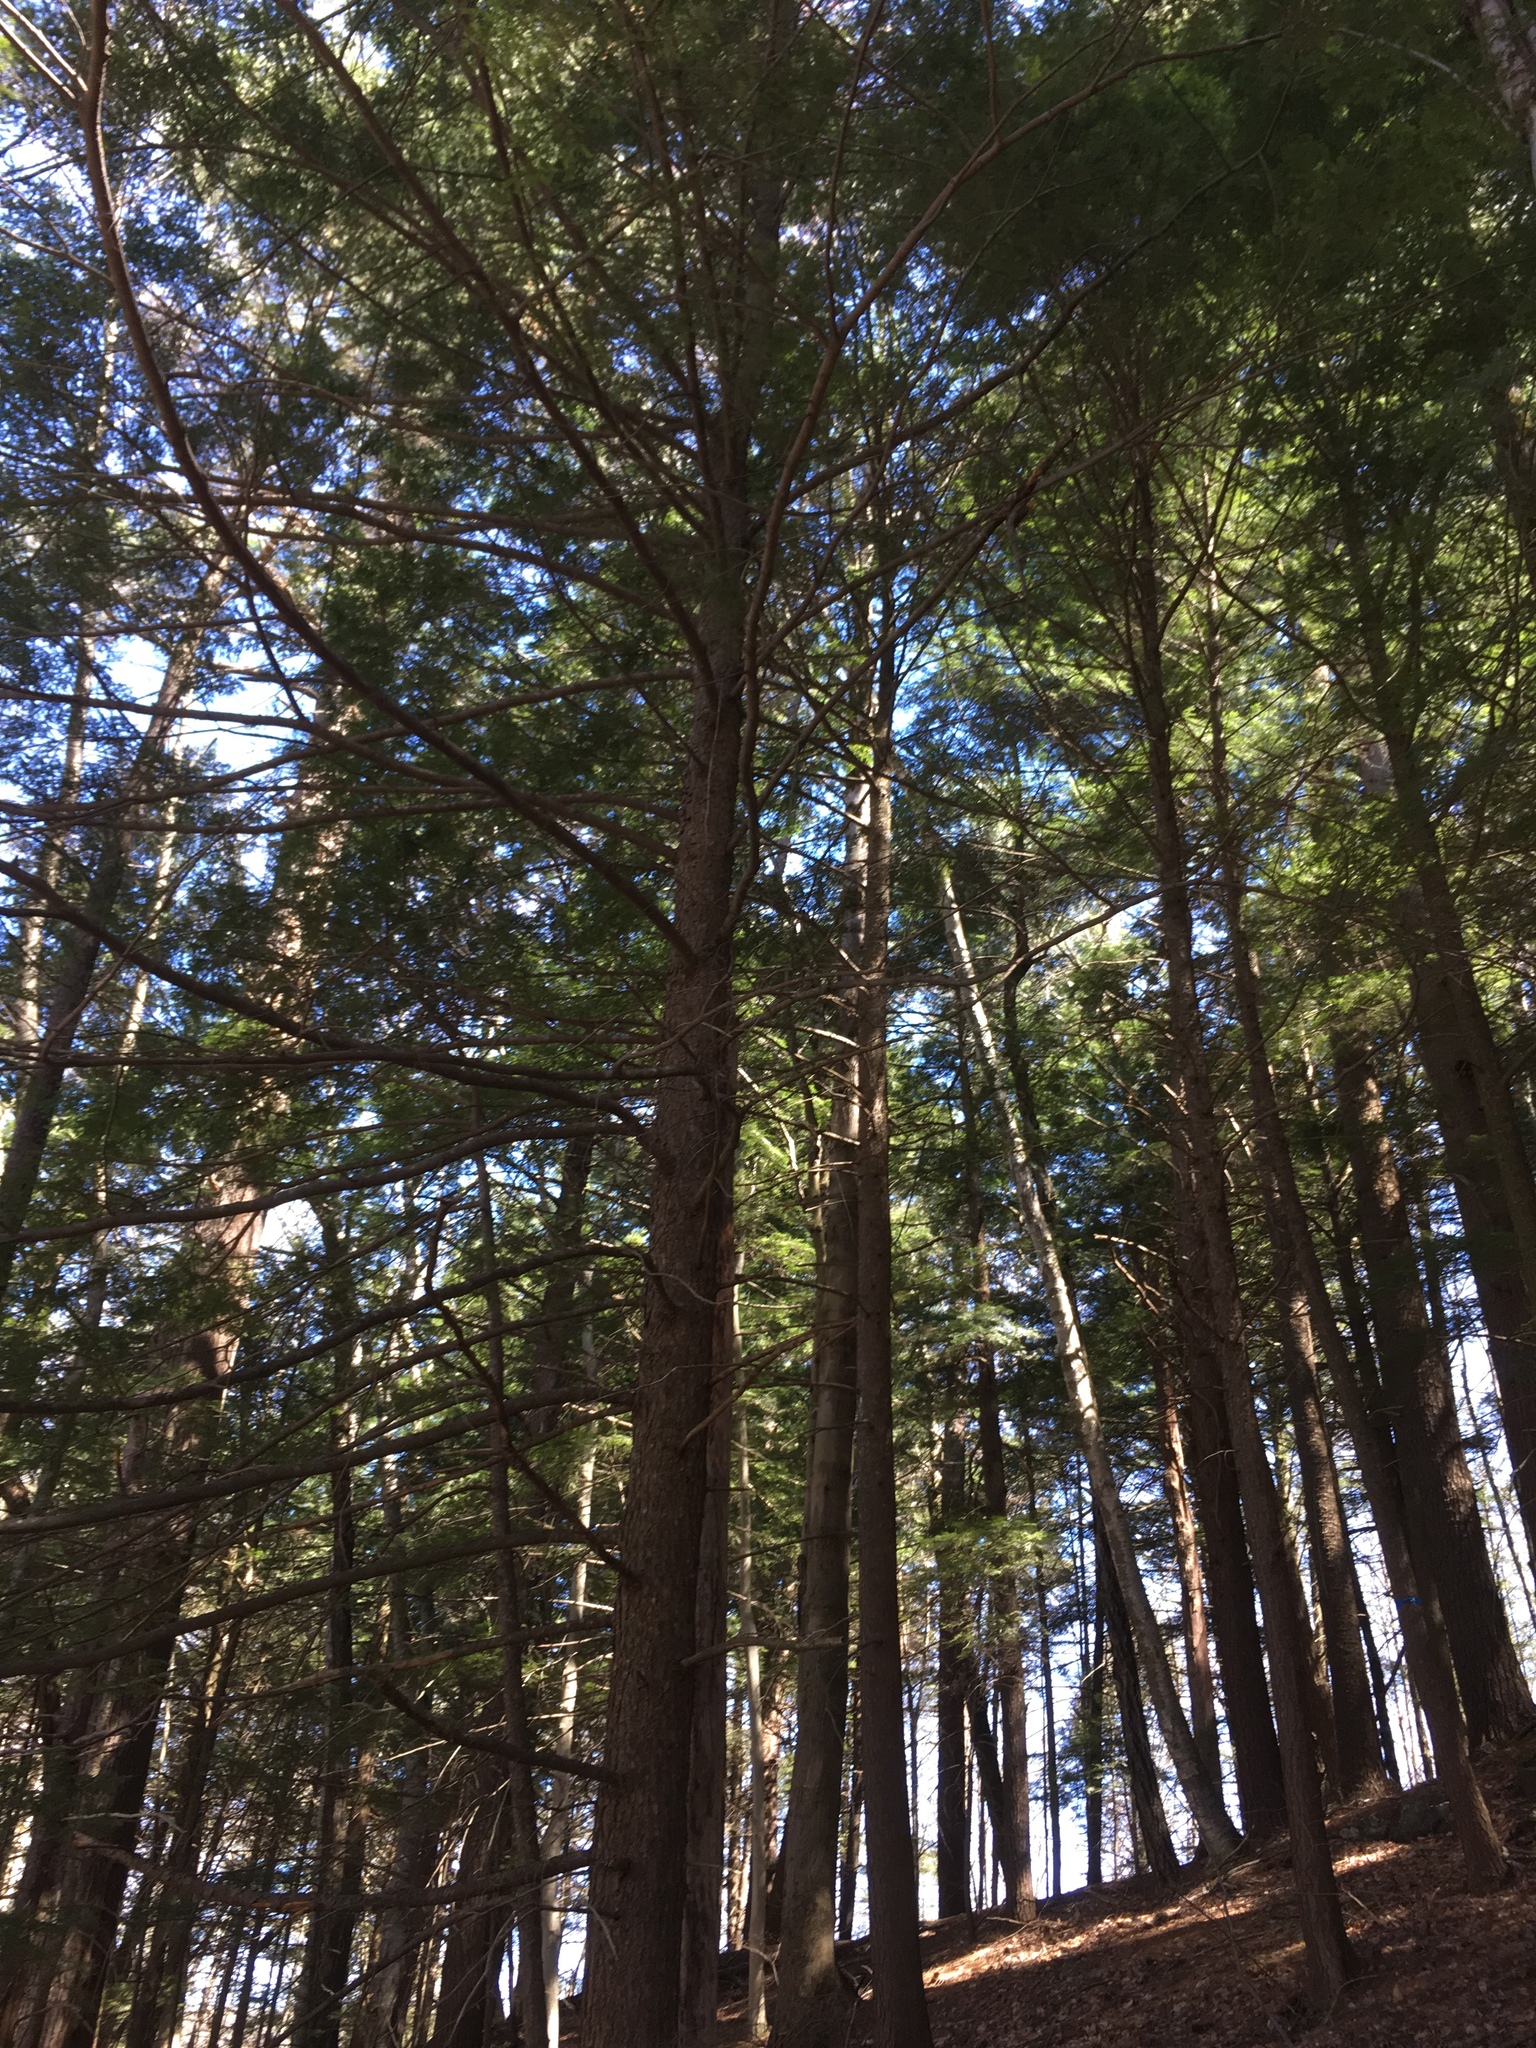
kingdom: Plantae
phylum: Tracheophyta
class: Pinopsida
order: Pinales
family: Pinaceae
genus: Tsuga
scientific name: Tsuga canadensis
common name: Eastern hemlock
